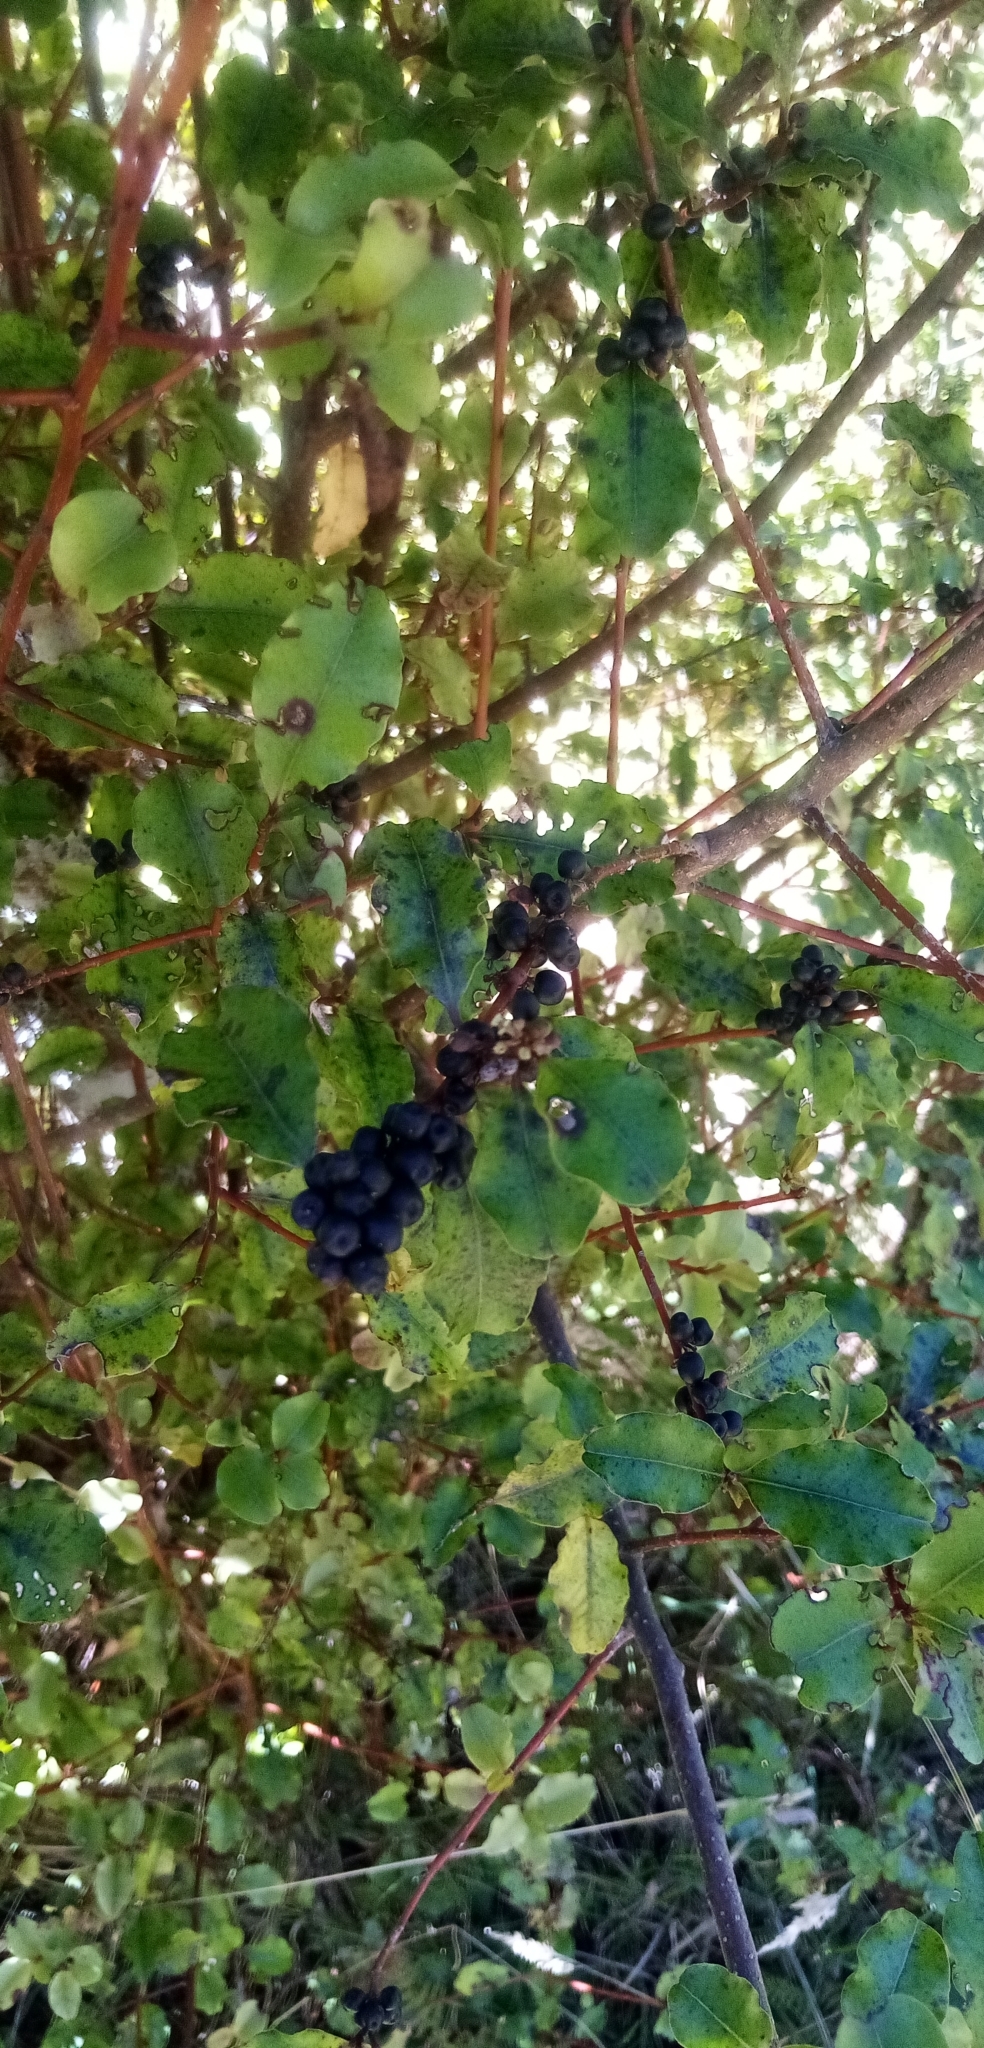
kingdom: Plantae
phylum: Tracheophyta
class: Magnoliopsida
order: Ericales
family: Primulaceae
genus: Myrsine
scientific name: Myrsine australis
